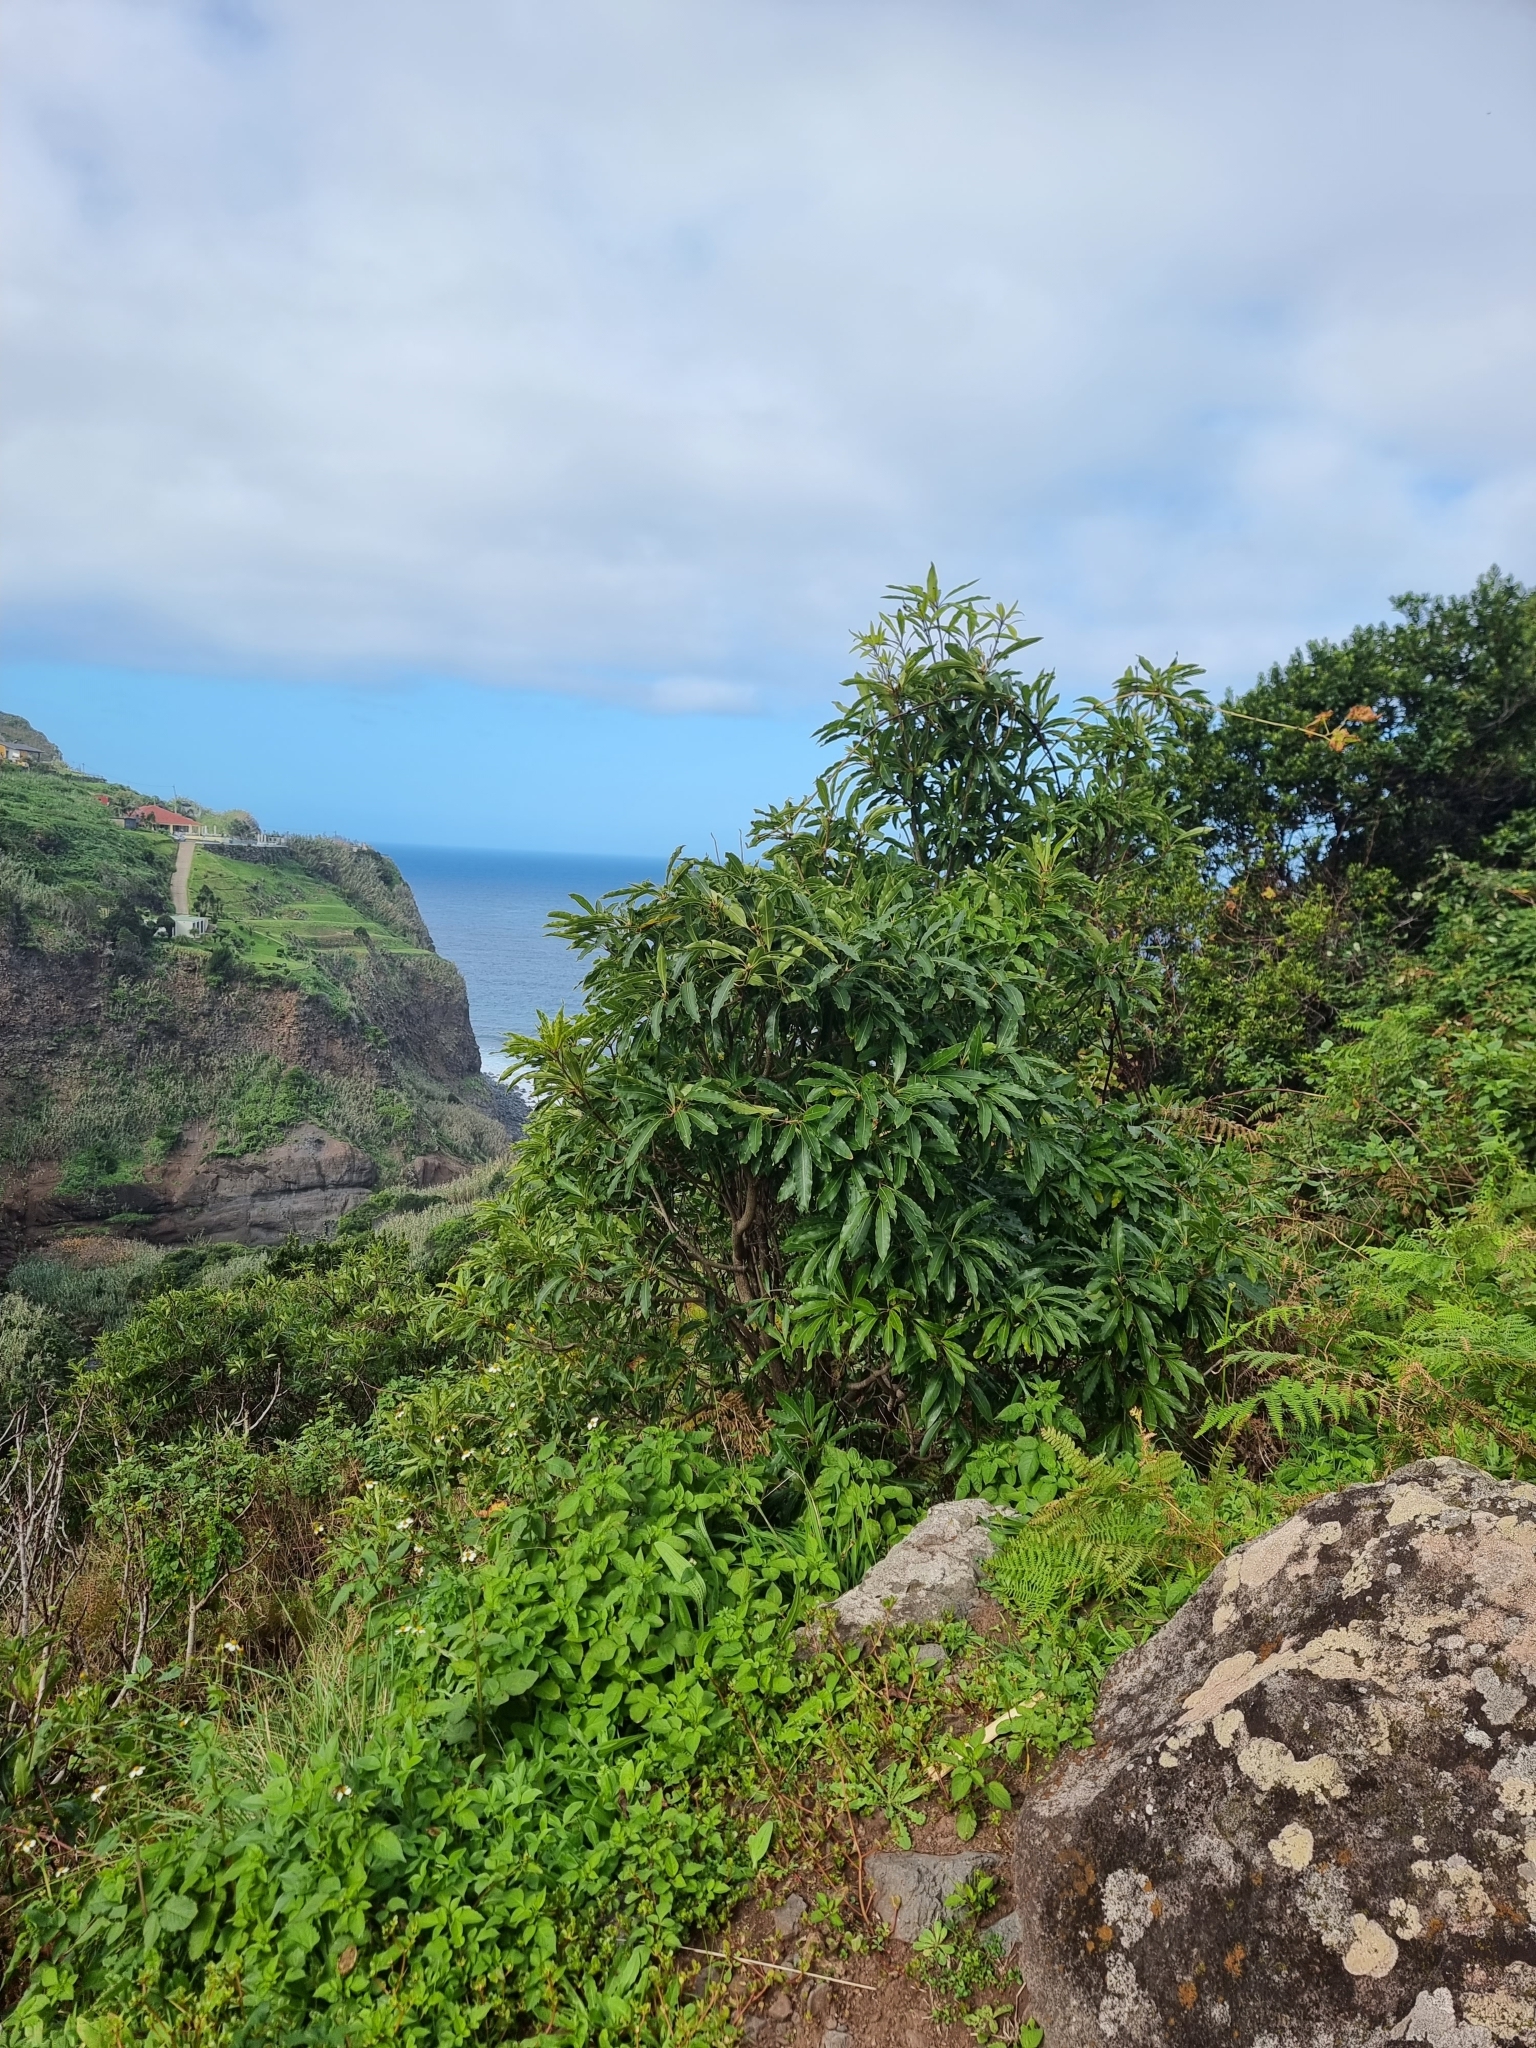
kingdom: Plantae
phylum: Tracheophyta
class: Magnoliopsida
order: Apiales
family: Pittosporaceae
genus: Pittosporum
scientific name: Pittosporum undulatum
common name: Australian cheesewood
